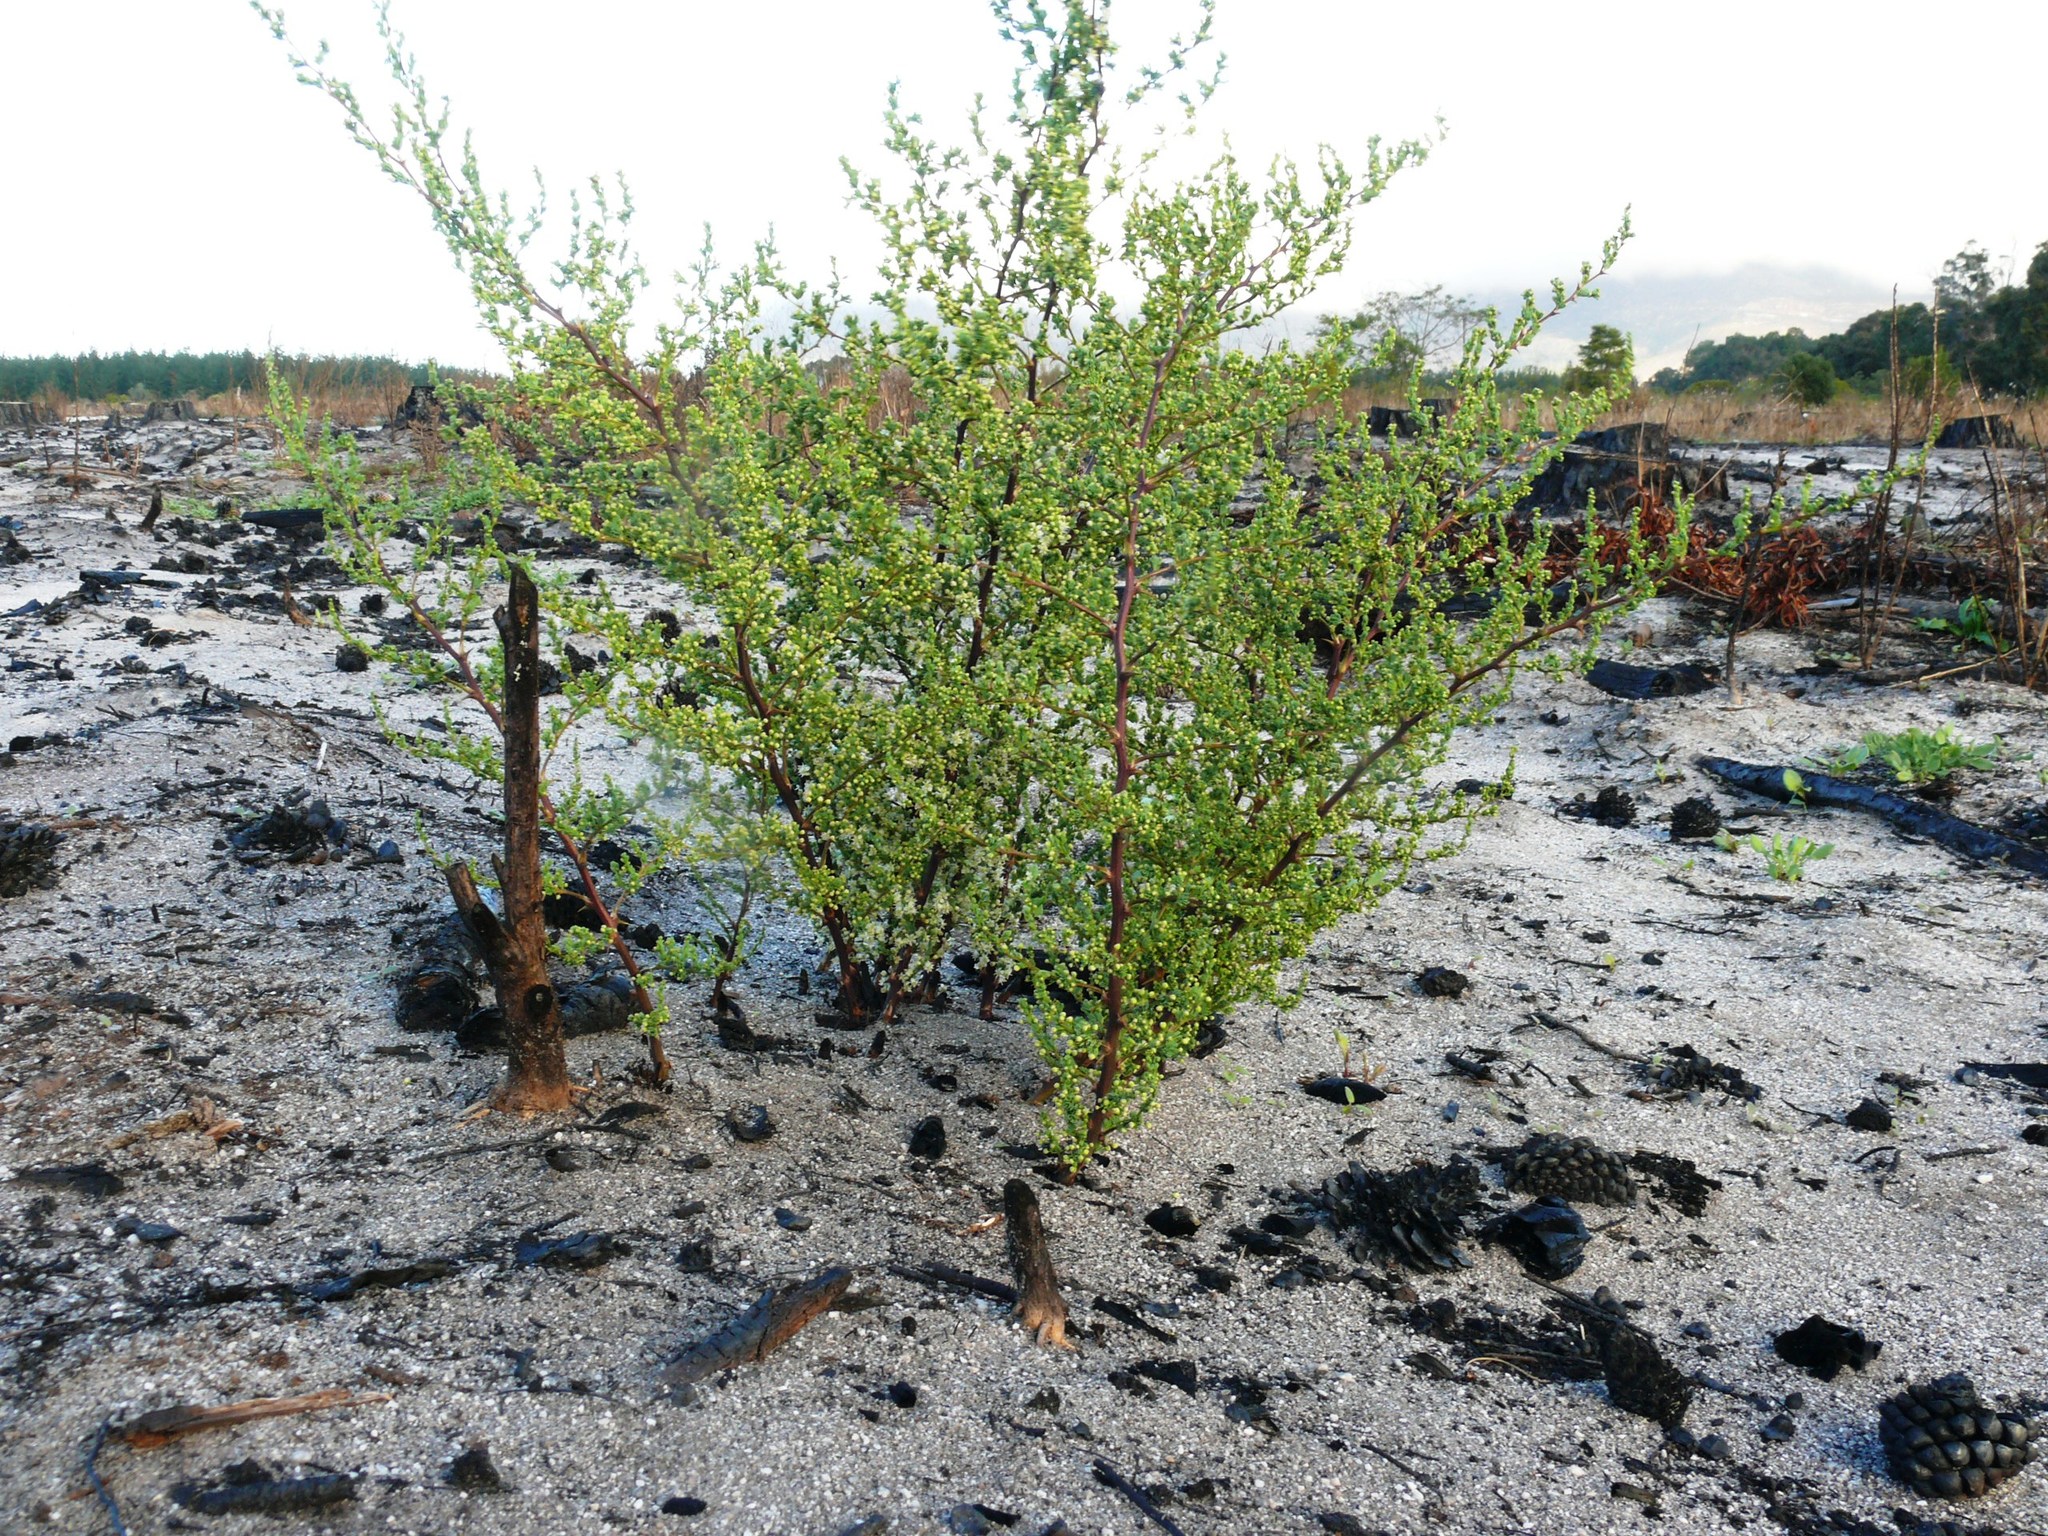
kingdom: Plantae
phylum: Tracheophyta
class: Liliopsida
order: Asparagales
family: Asparagaceae
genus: Asparagus
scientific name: Asparagus rubicundus
